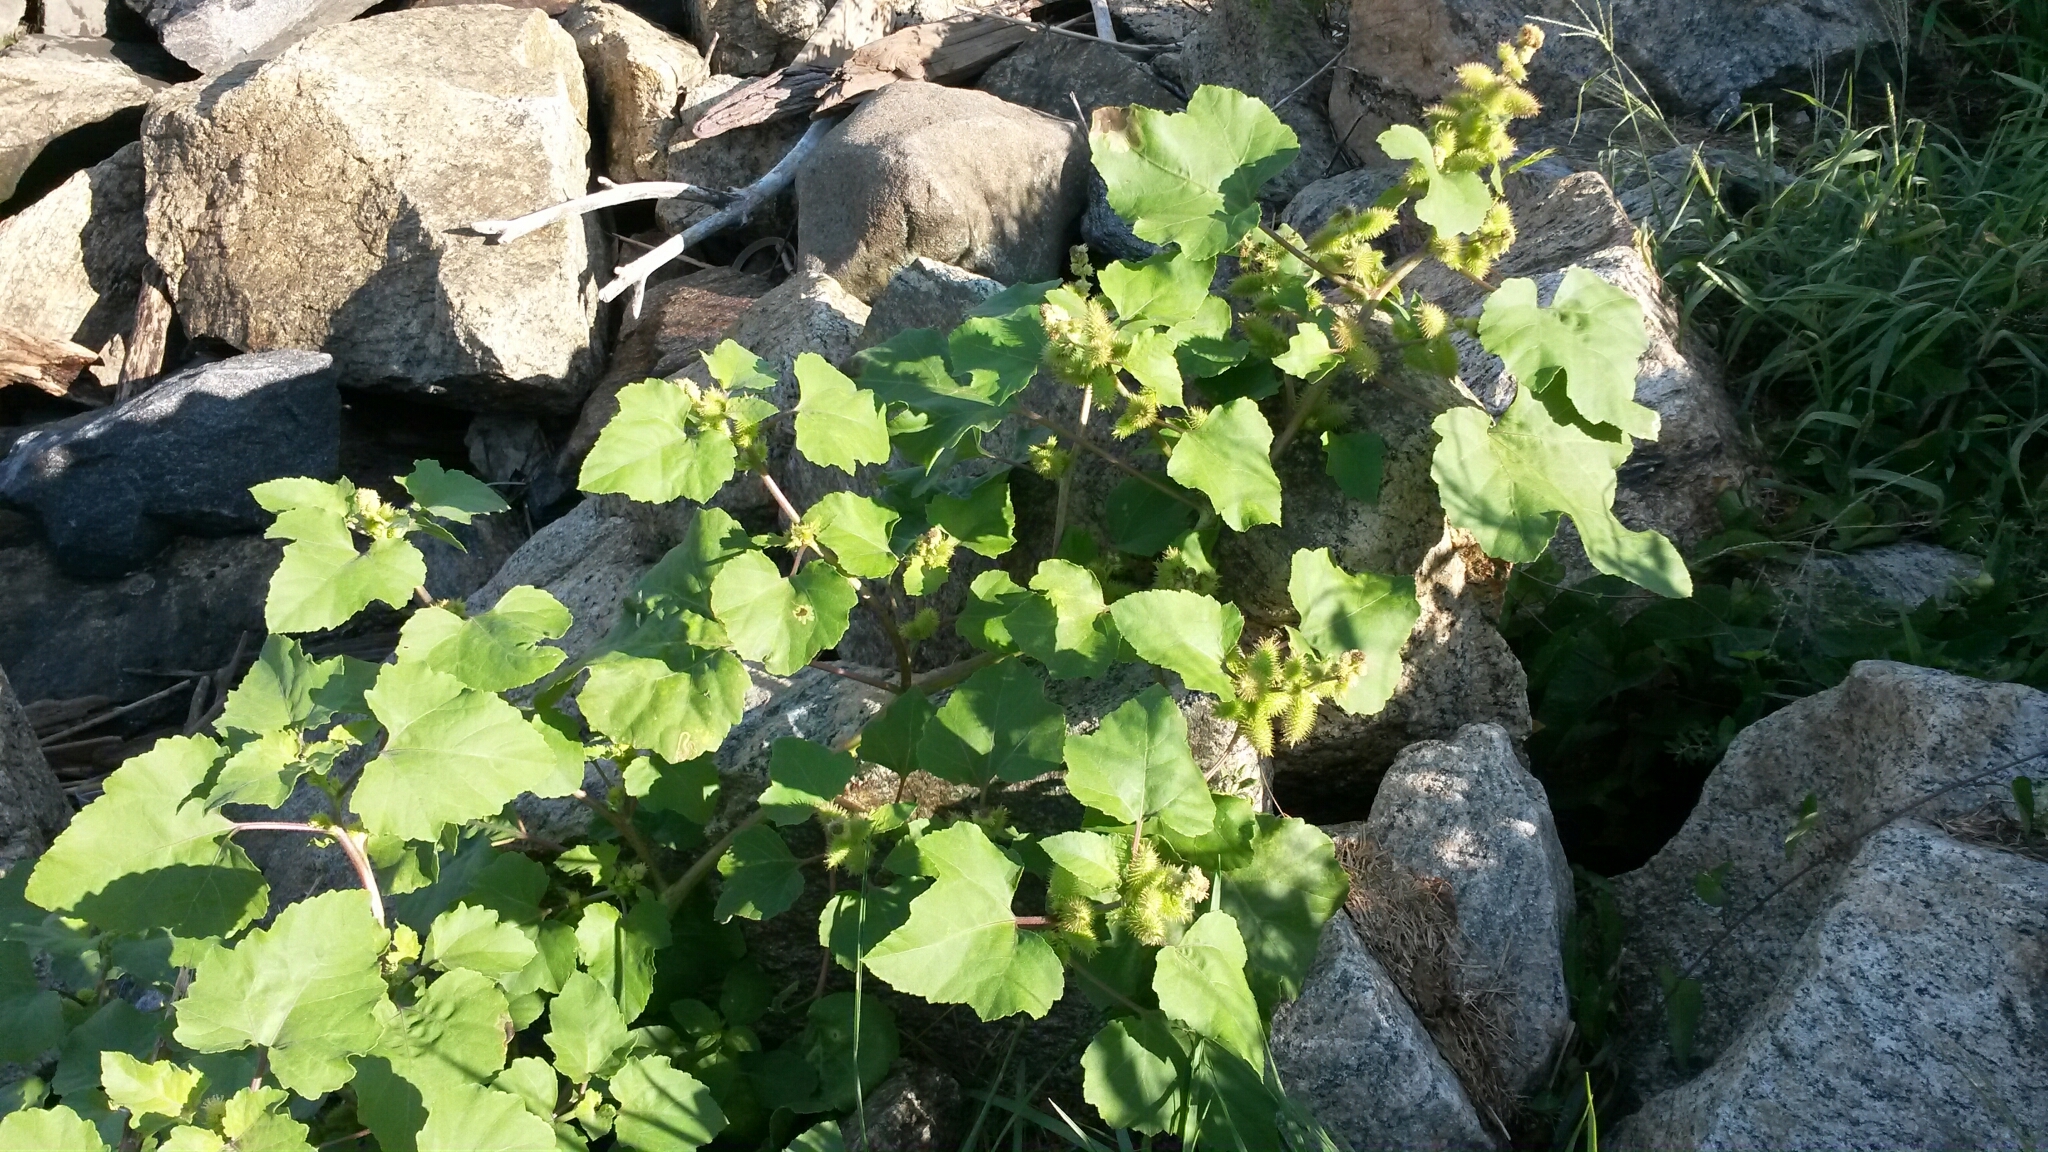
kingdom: Plantae
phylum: Tracheophyta
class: Magnoliopsida
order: Asterales
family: Asteraceae
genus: Xanthium
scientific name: Xanthium strumarium
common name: Rough cocklebur
